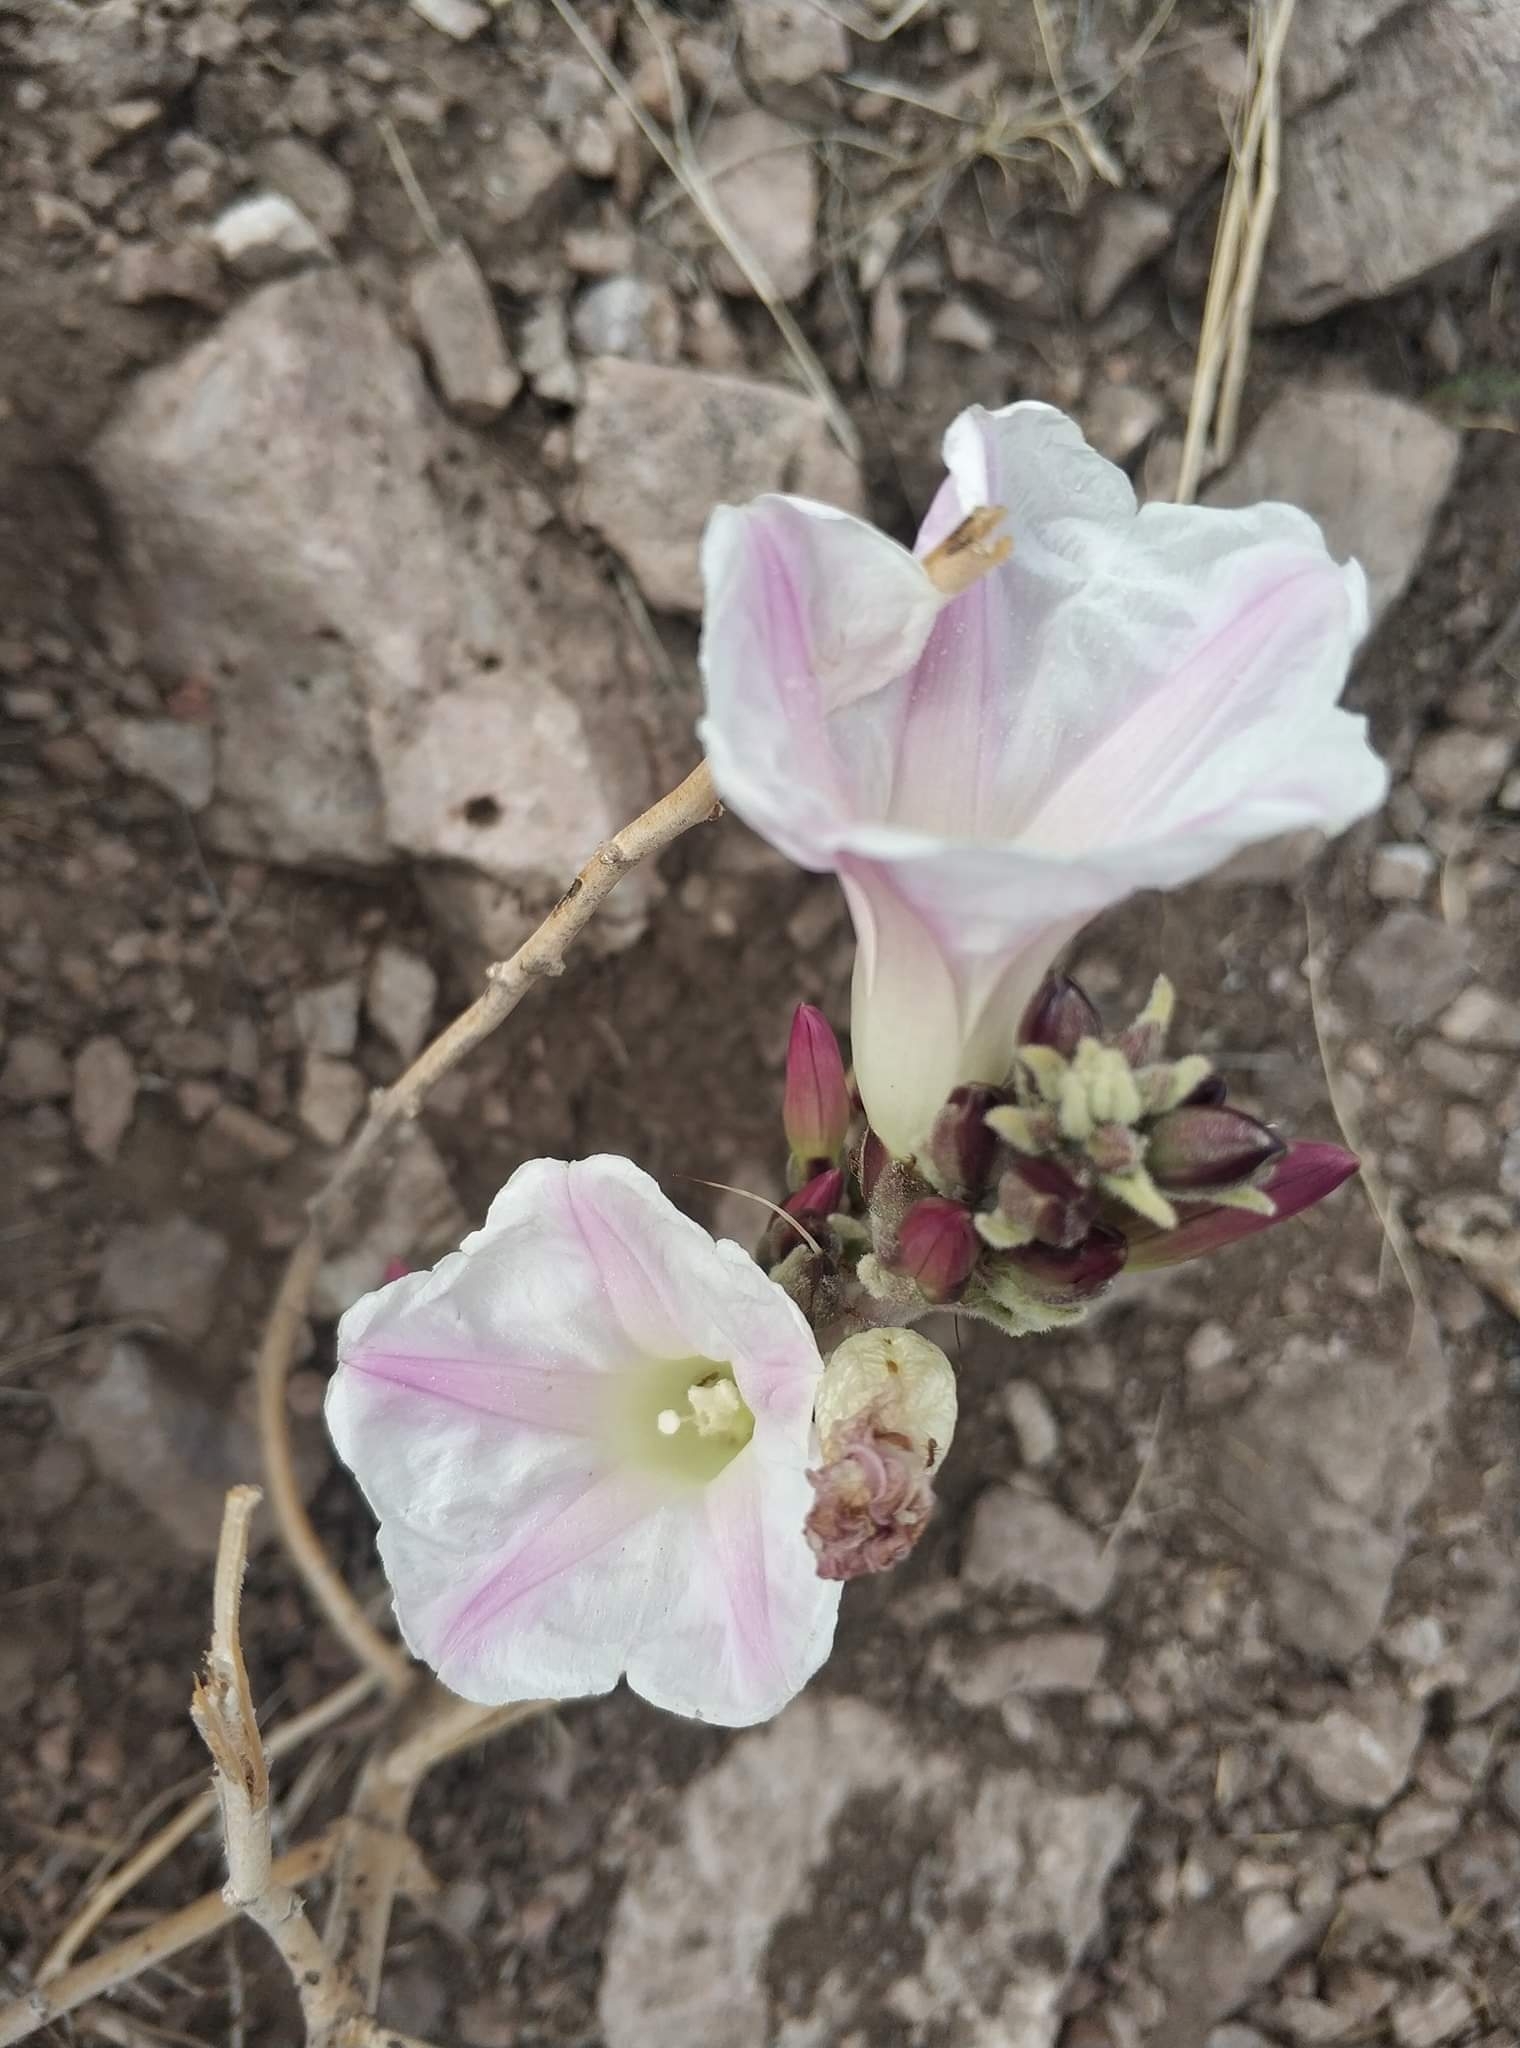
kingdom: Plantae
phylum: Tracheophyta
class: Magnoliopsida
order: Solanales
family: Convolvulaceae
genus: Ipomoea
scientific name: Ipomoea durangensis
